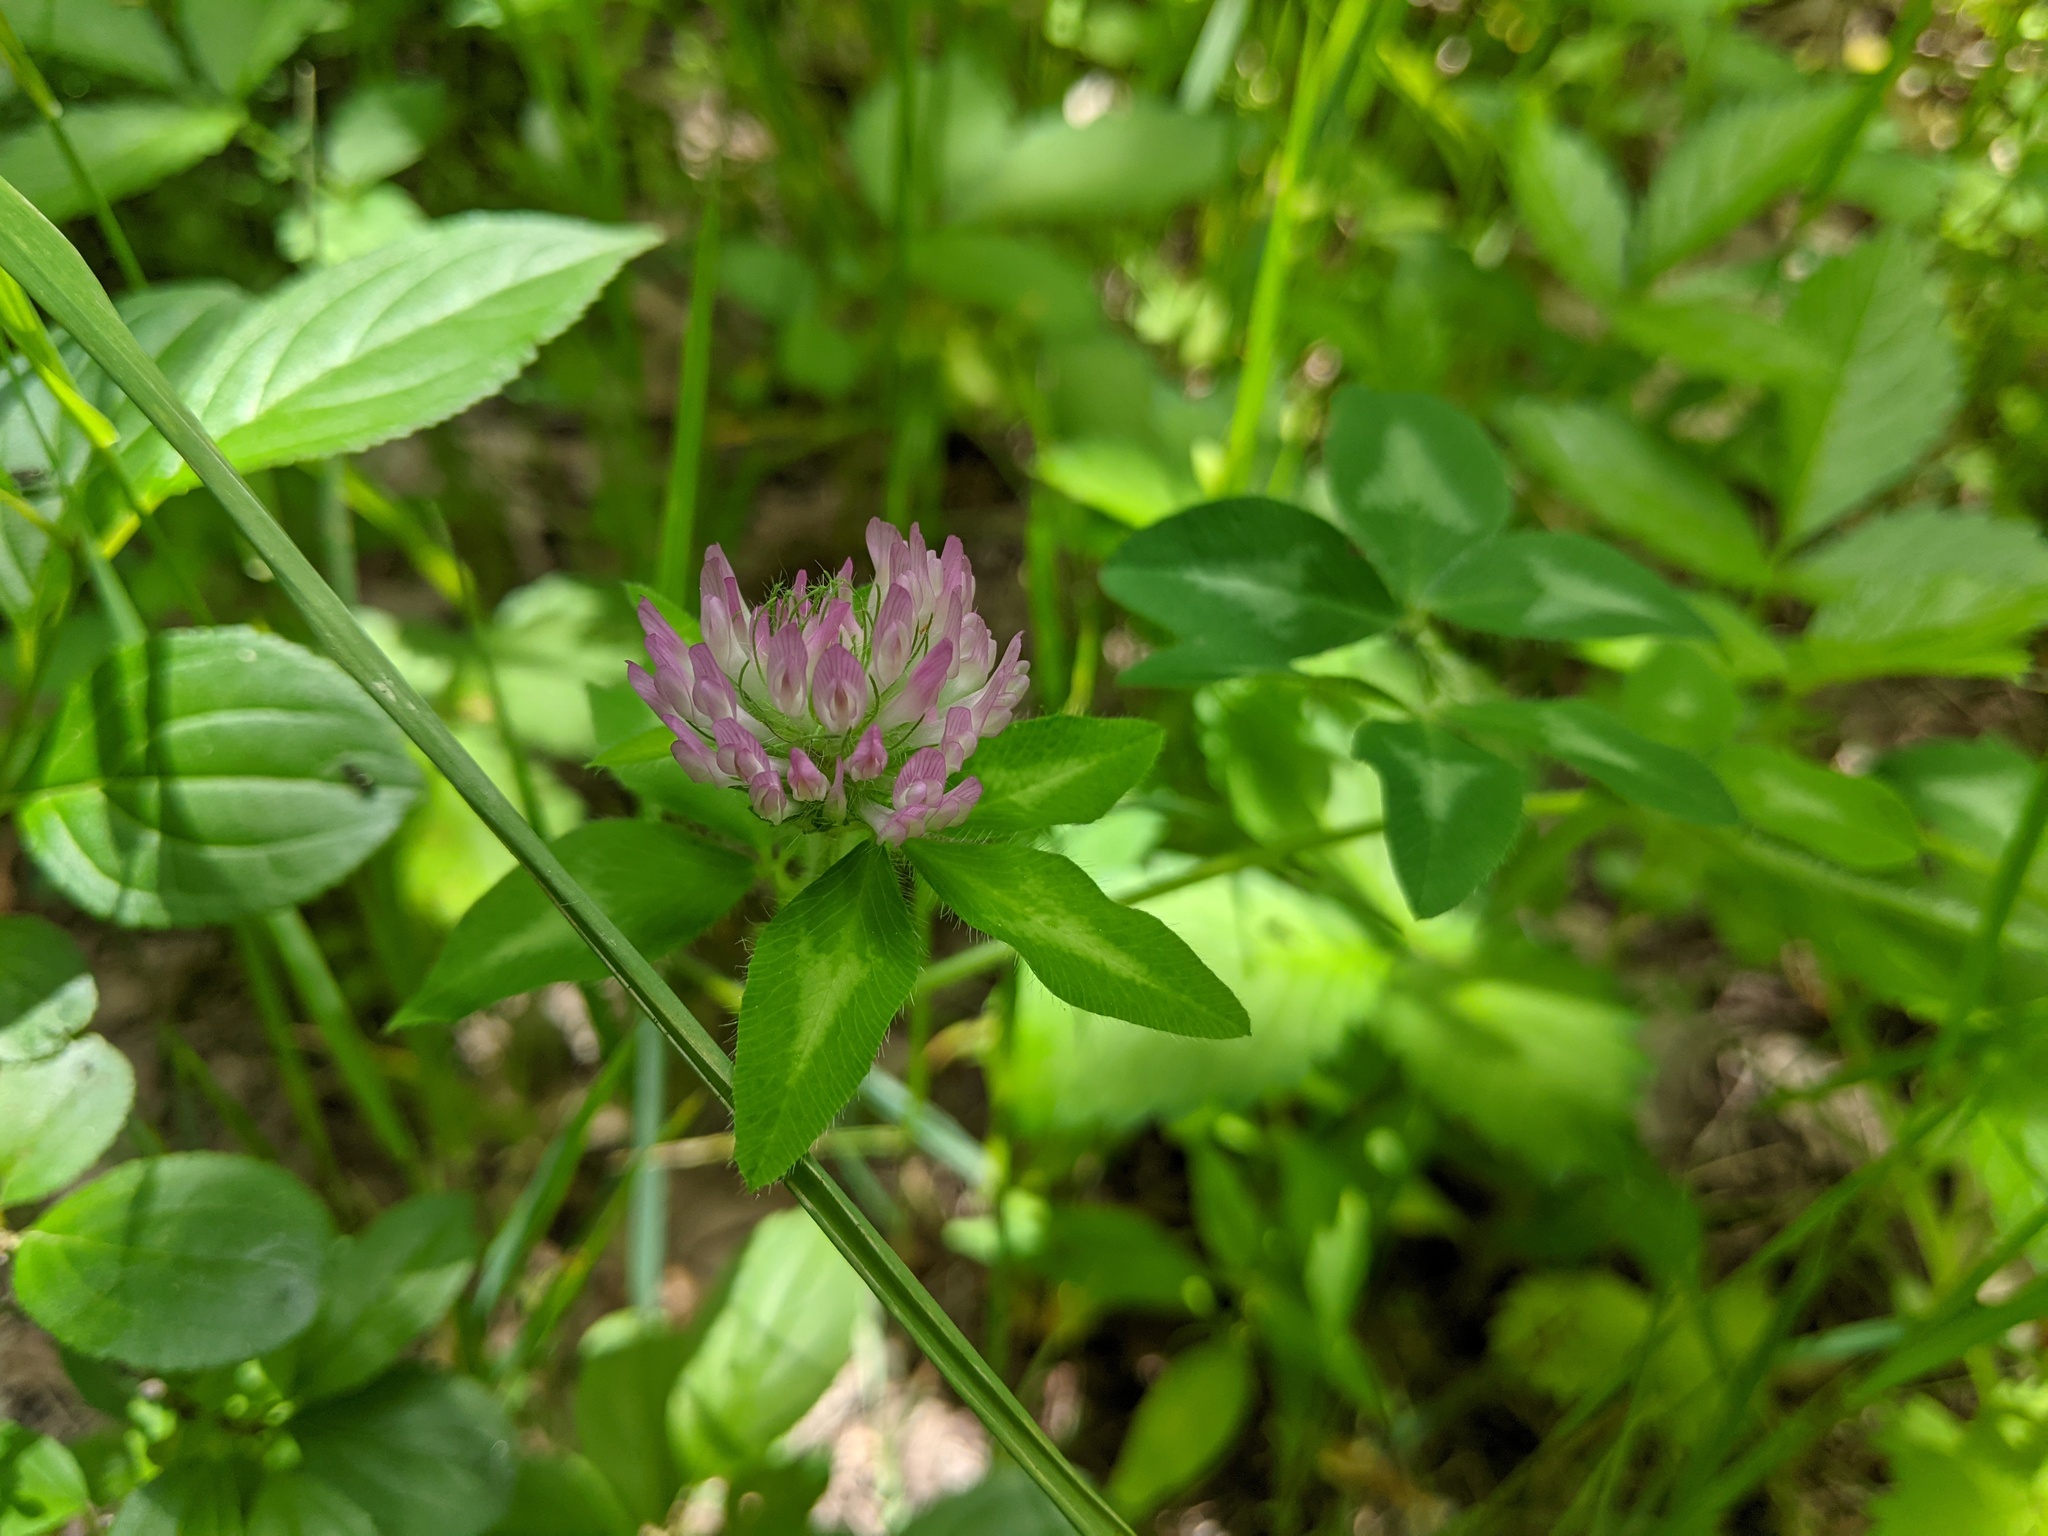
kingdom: Plantae
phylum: Tracheophyta
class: Magnoliopsida
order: Fabales
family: Fabaceae
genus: Trifolium
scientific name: Trifolium pratense
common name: Red clover
